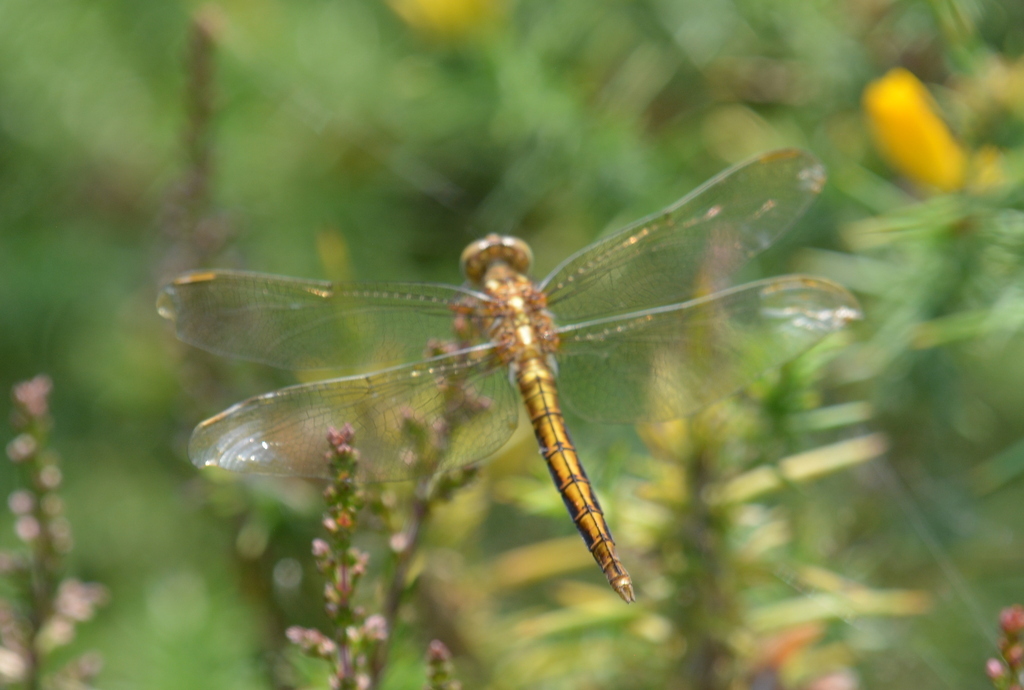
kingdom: Animalia
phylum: Arthropoda
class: Insecta
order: Odonata
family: Libellulidae
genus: Orthetrum
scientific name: Orthetrum coerulescens
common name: Keeled skimmer
